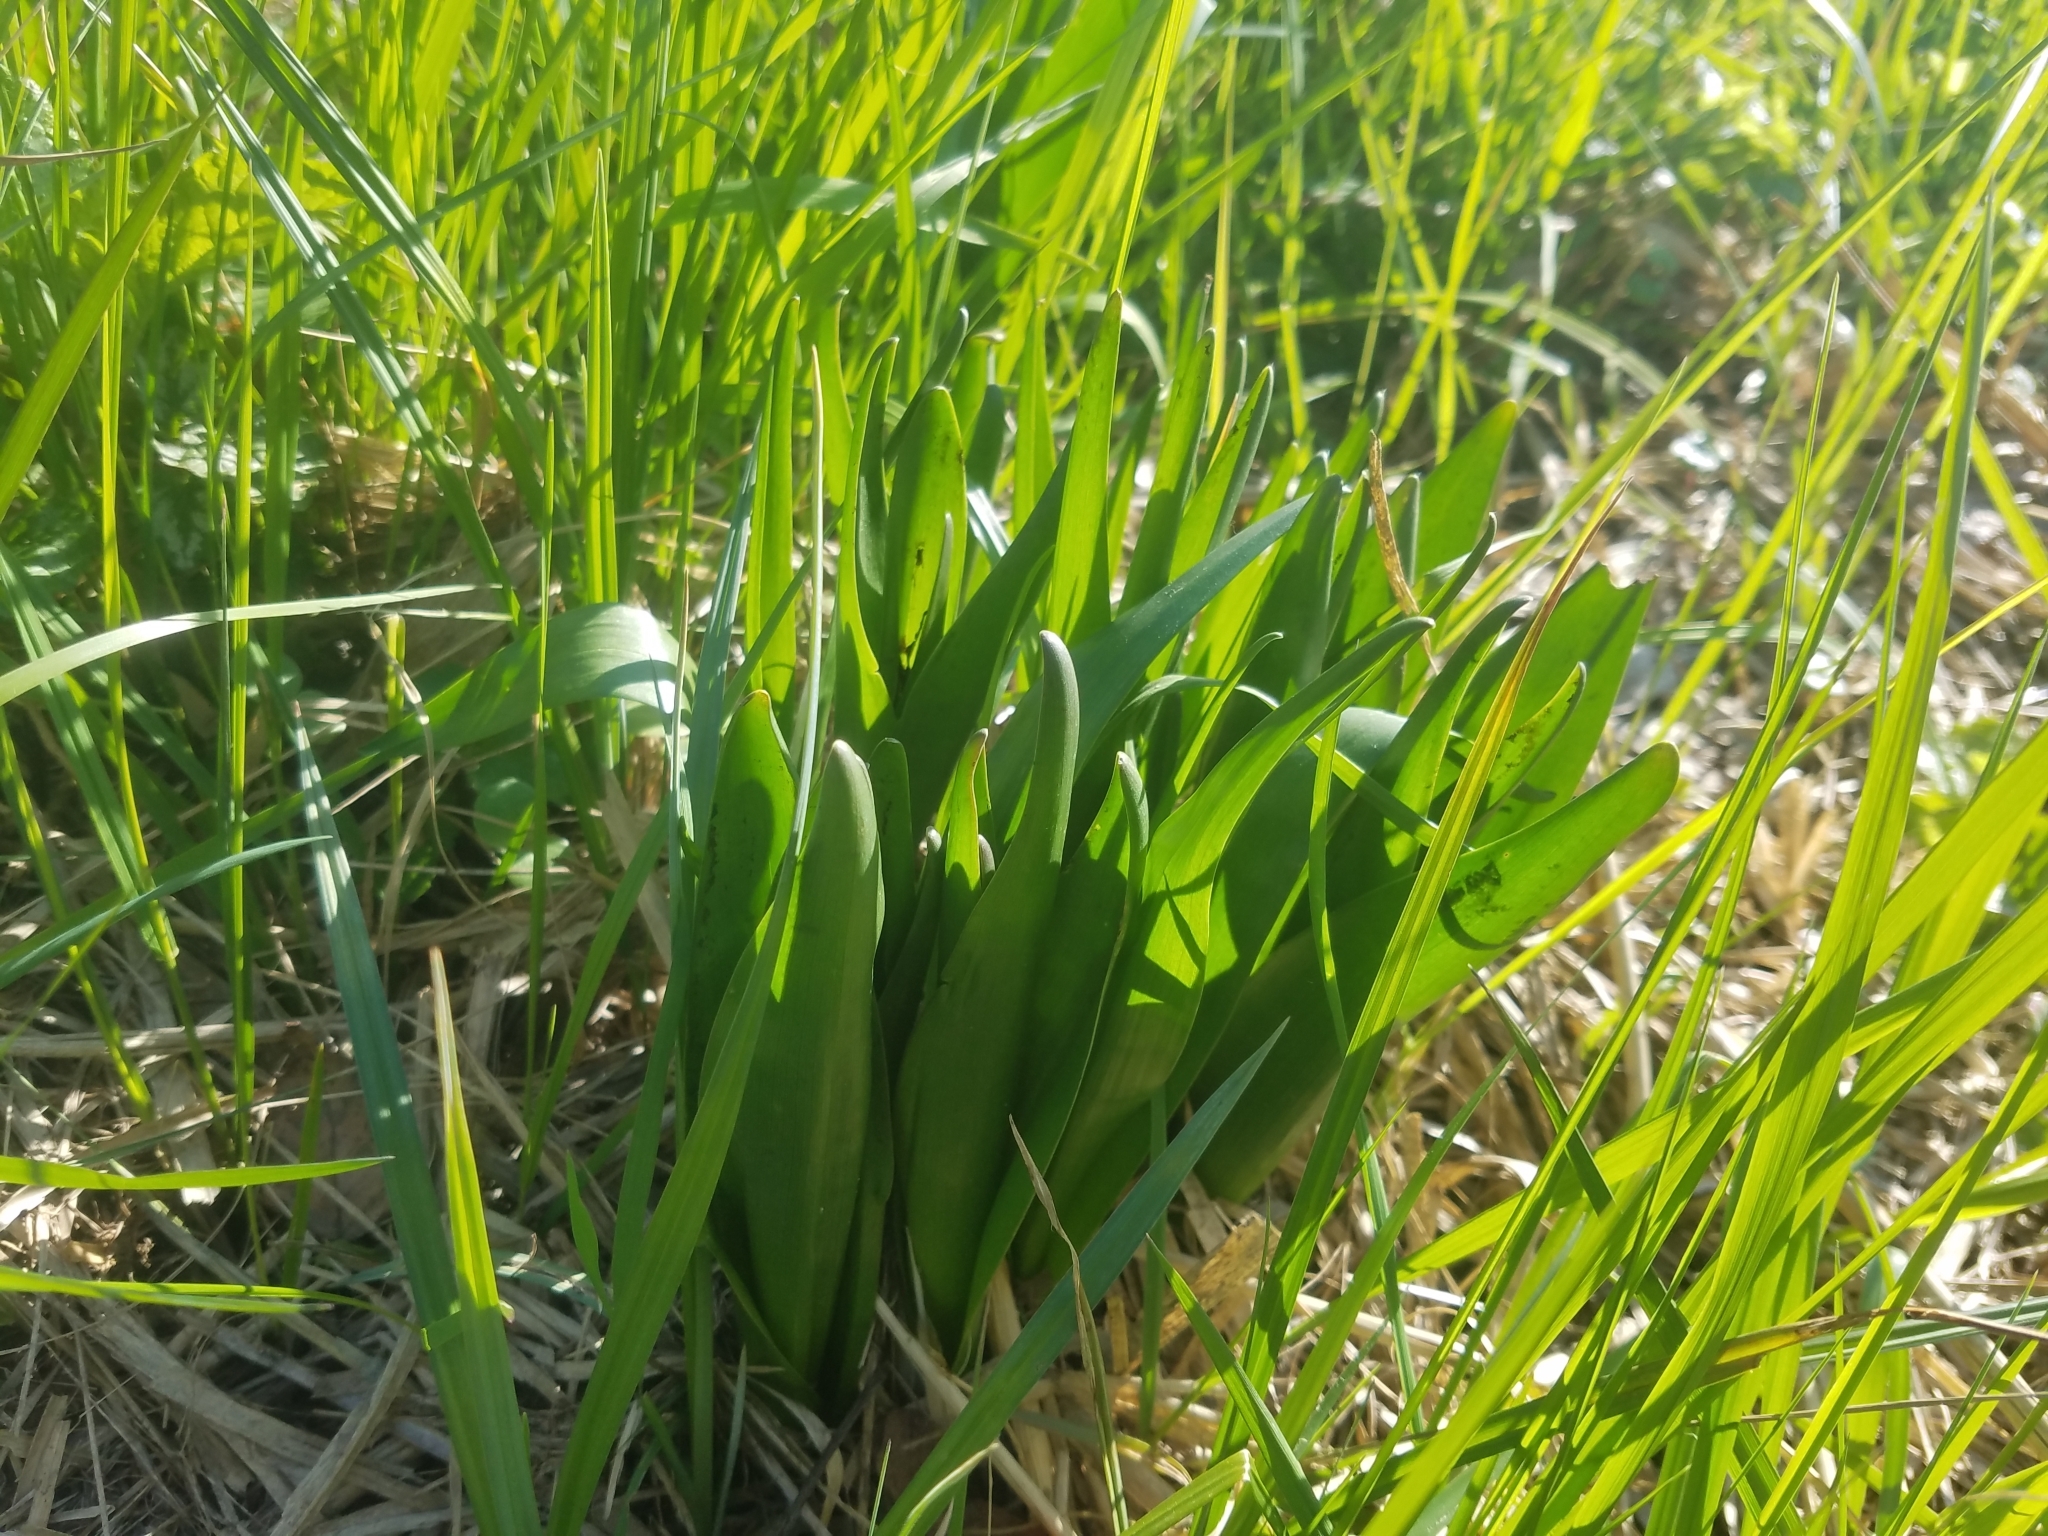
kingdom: Plantae
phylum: Tracheophyta
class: Liliopsida
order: Liliales
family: Colchicaceae
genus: Colchicum
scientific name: Colchicum autumnale
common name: Autumn crocus
